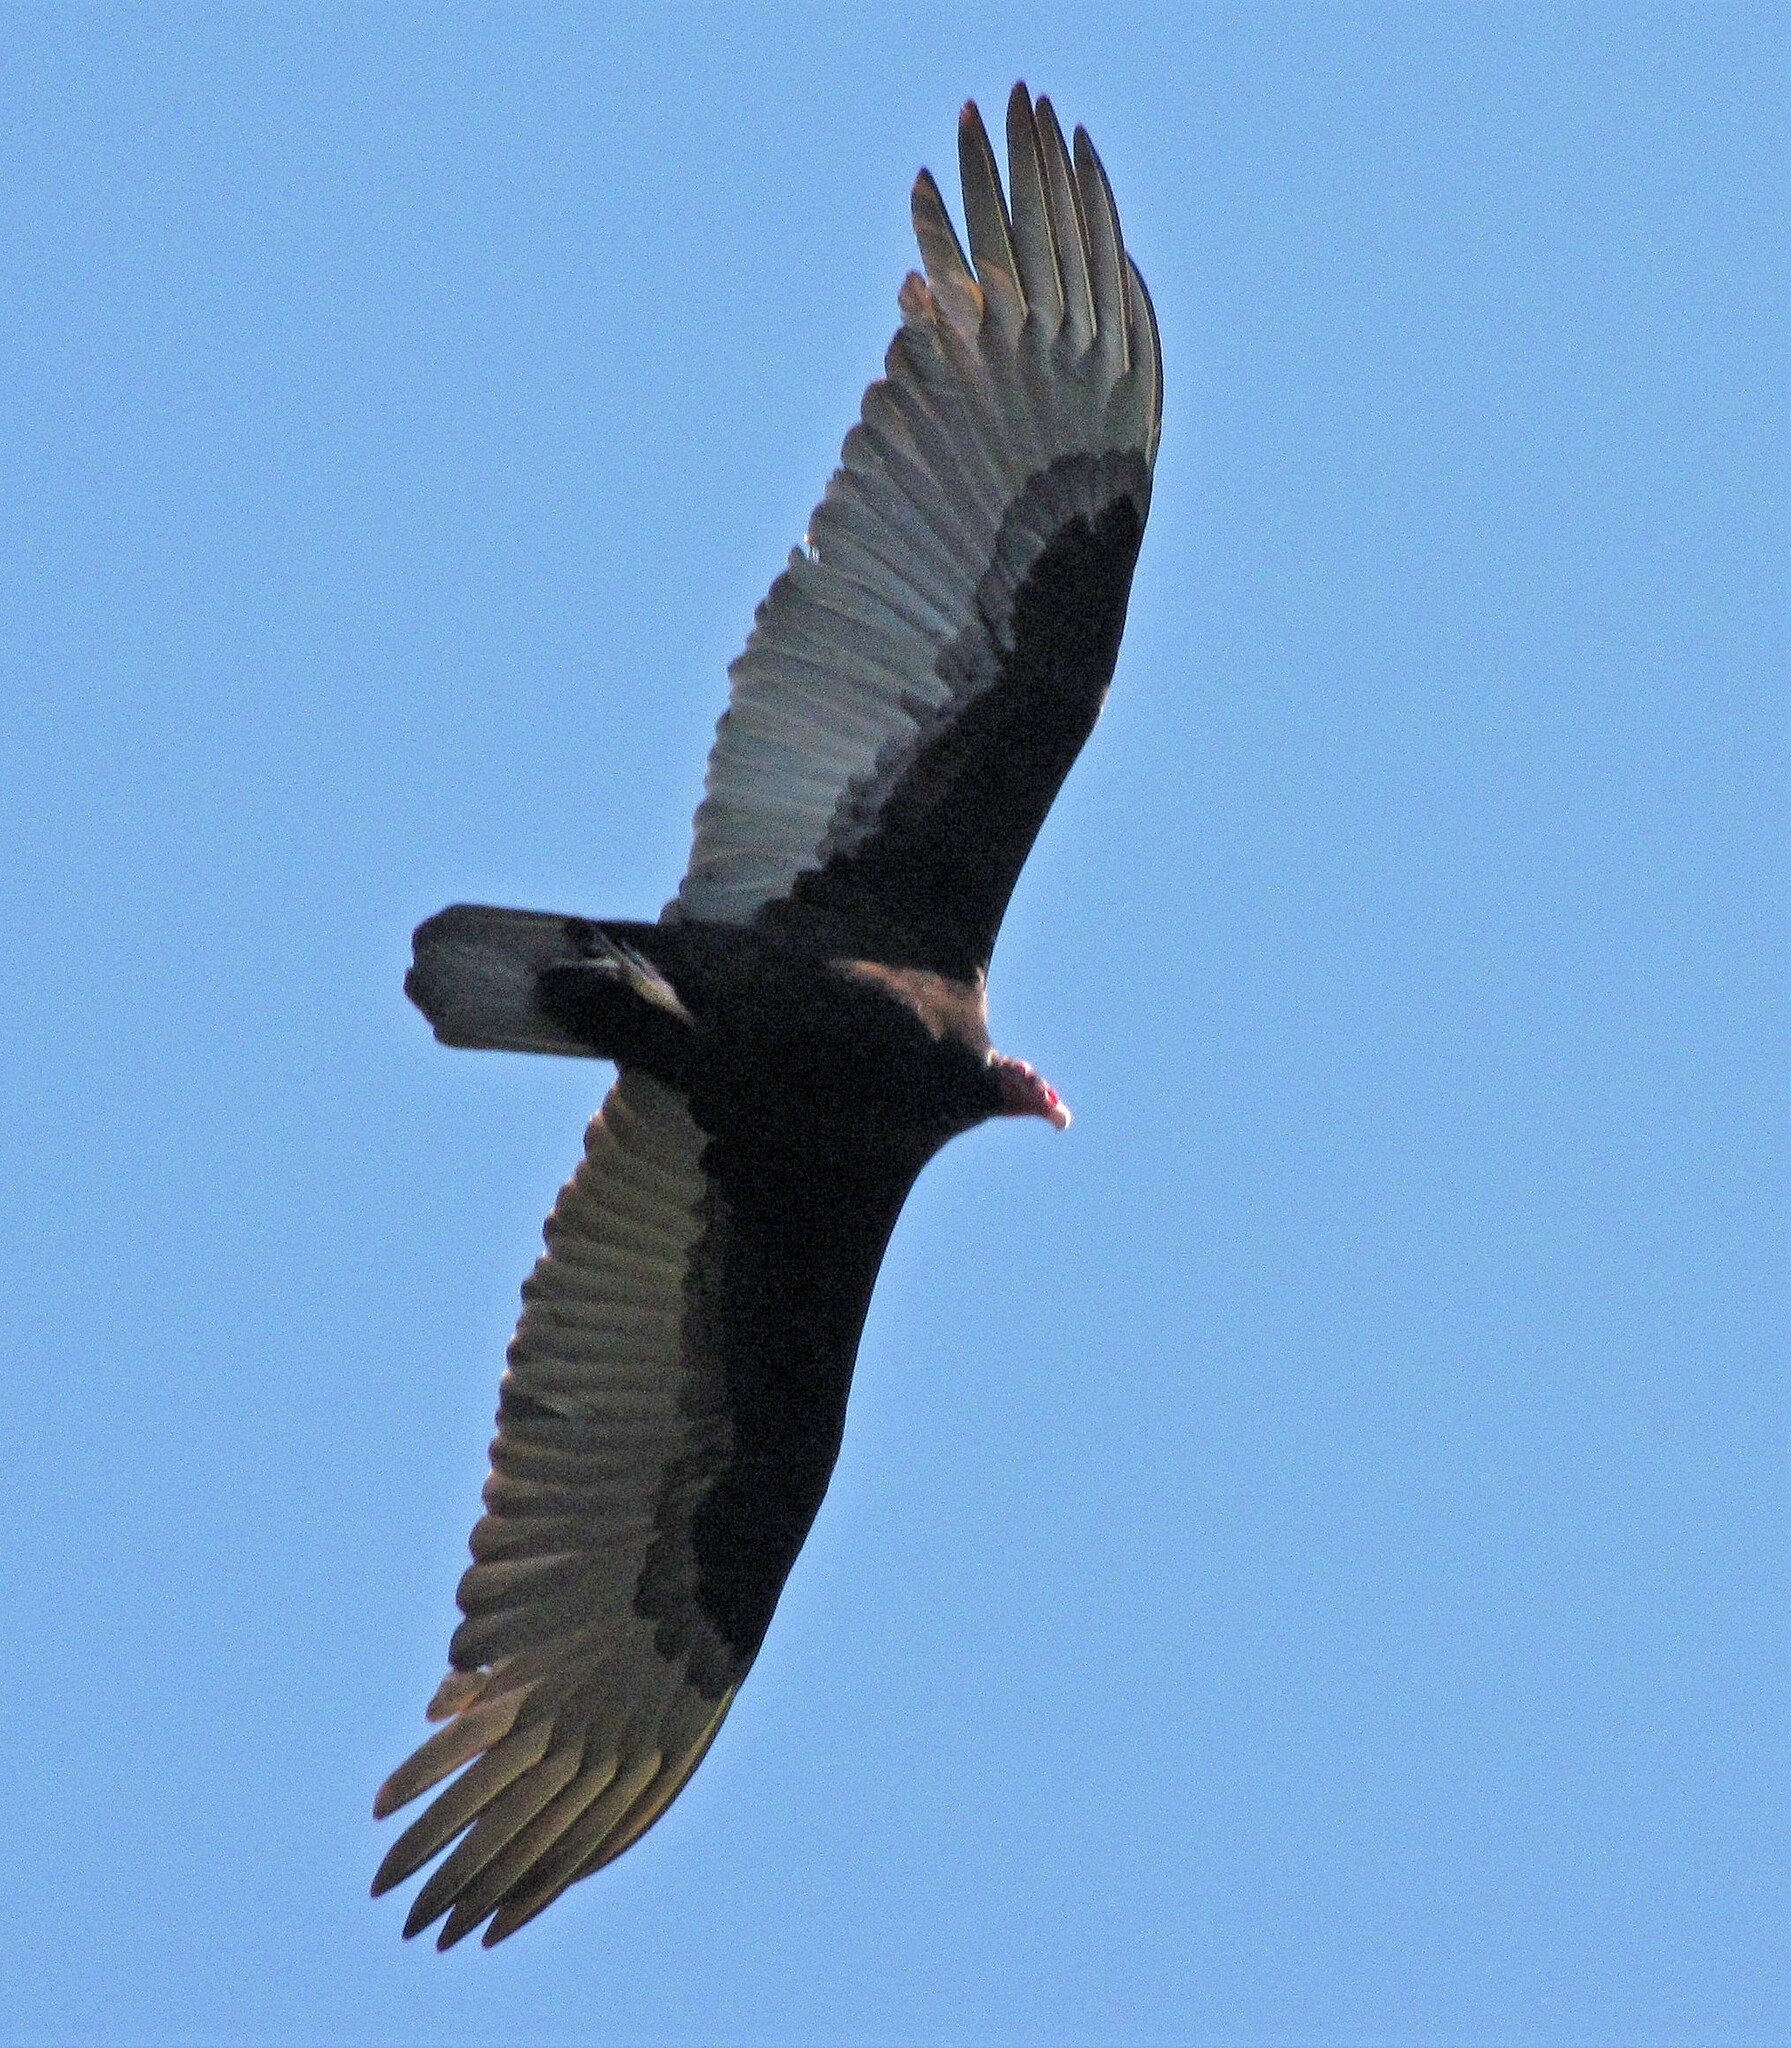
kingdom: Animalia
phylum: Chordata
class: Aves
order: Accipitriformes
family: Cathartidae
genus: Cathartes
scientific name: Cathartes aura
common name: Turkey vulture
